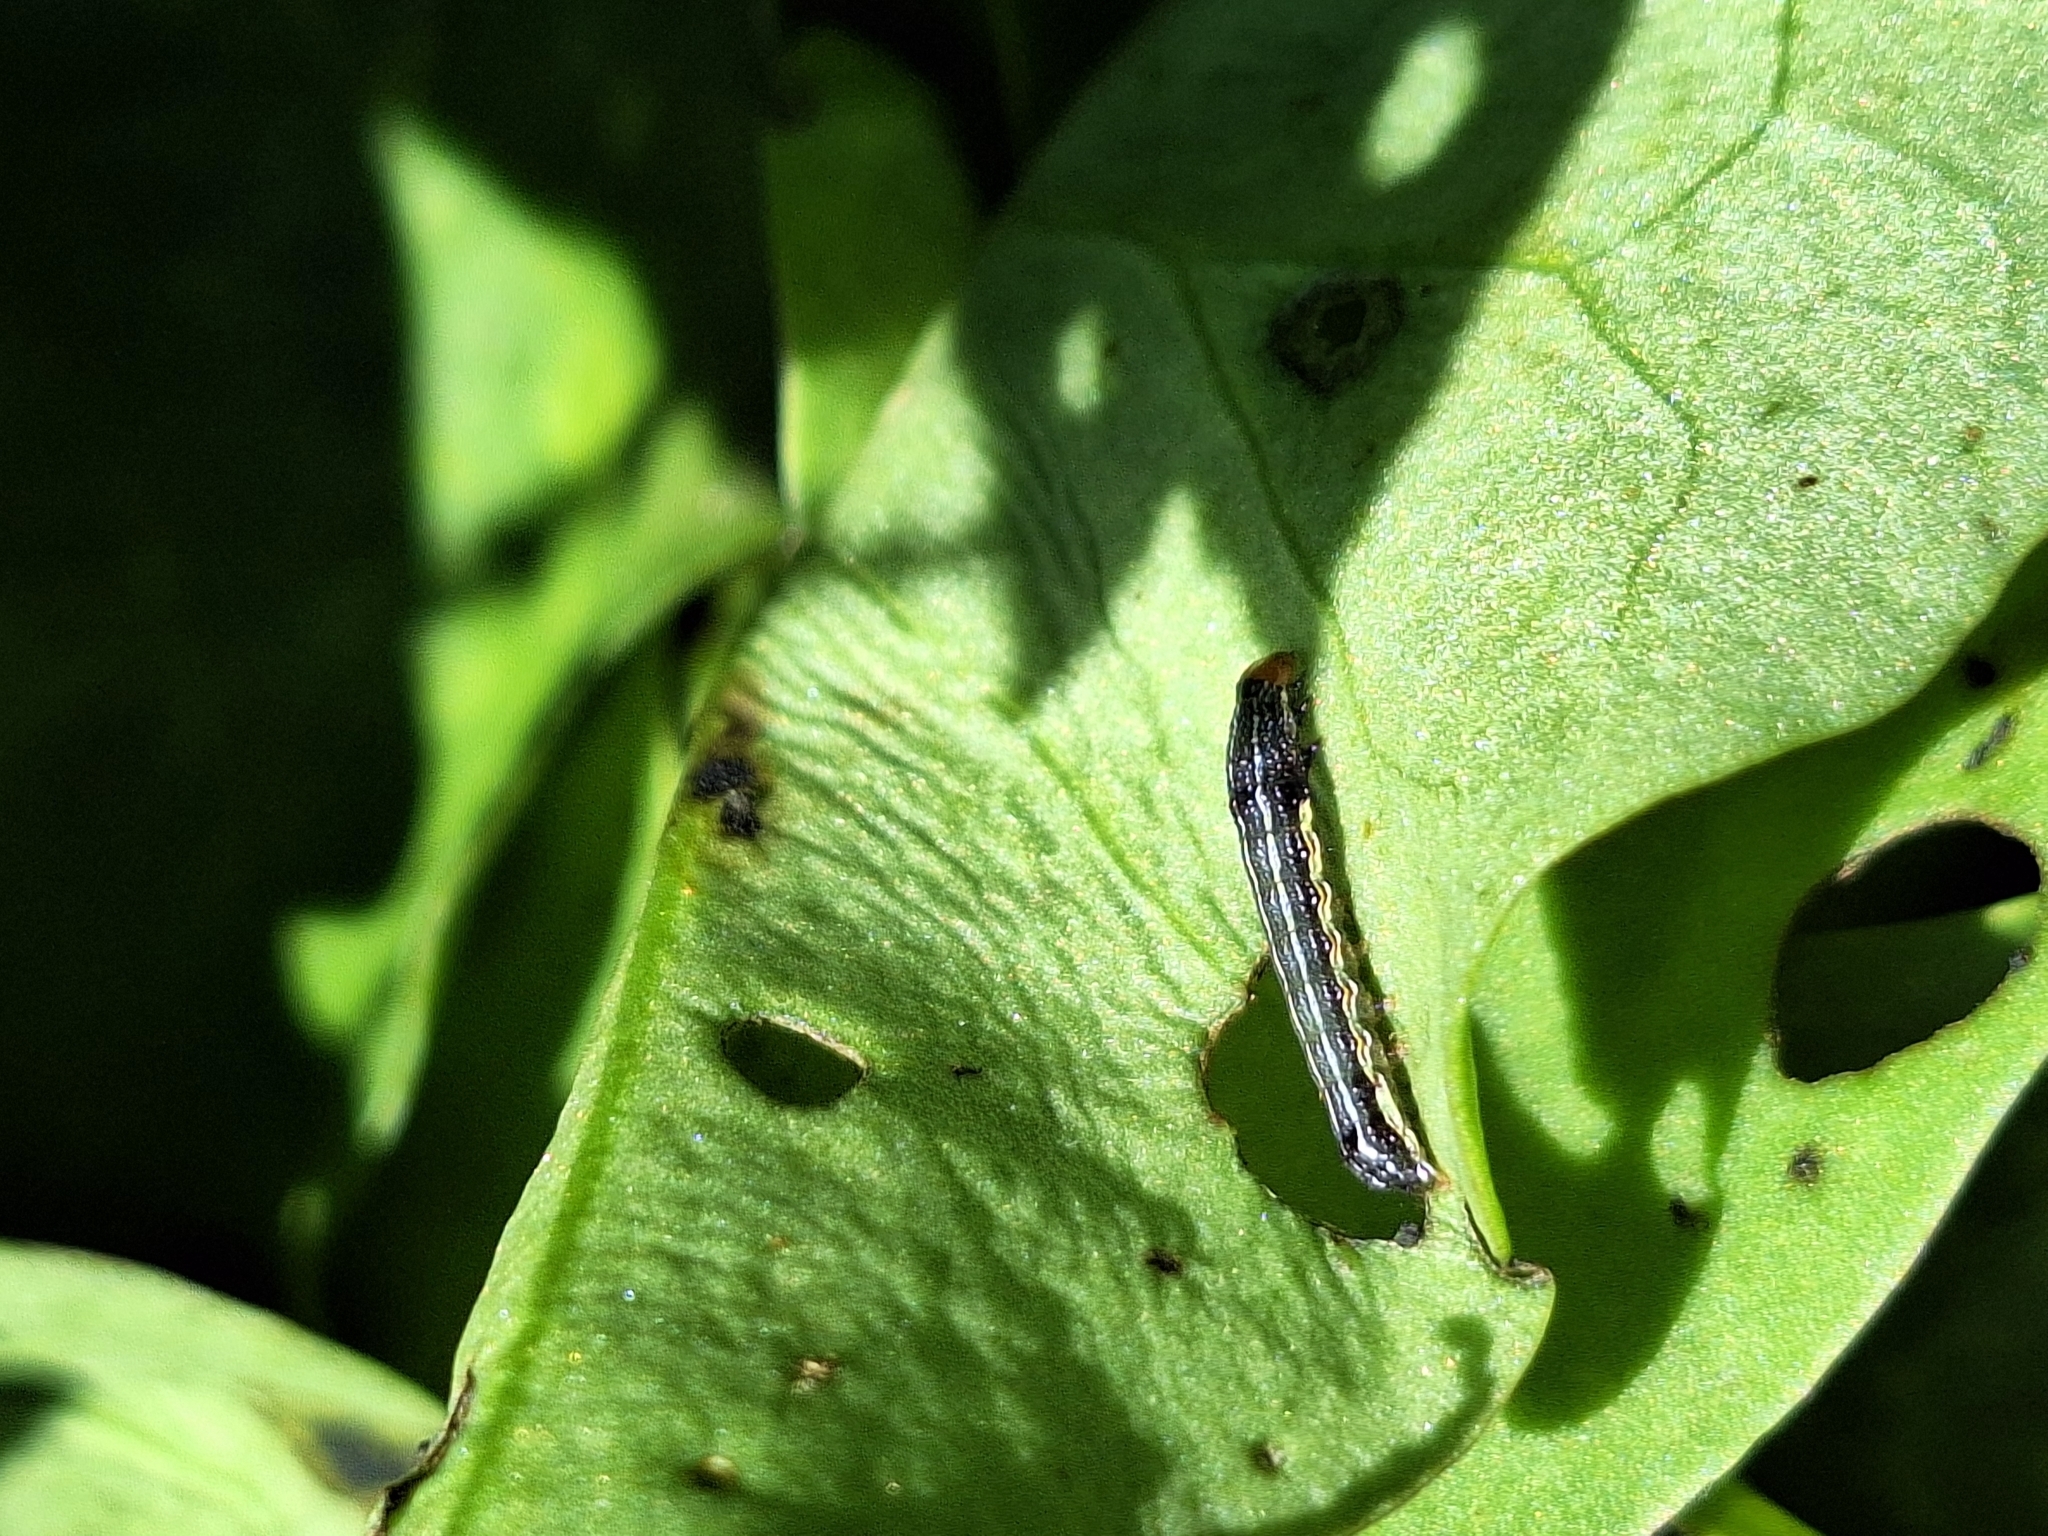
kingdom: Animalia
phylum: Arthropoda
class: Insecta
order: Lepidoptera
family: Noctuidae
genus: Spodoptera
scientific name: Spodoptera eridania
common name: Southern army worm
